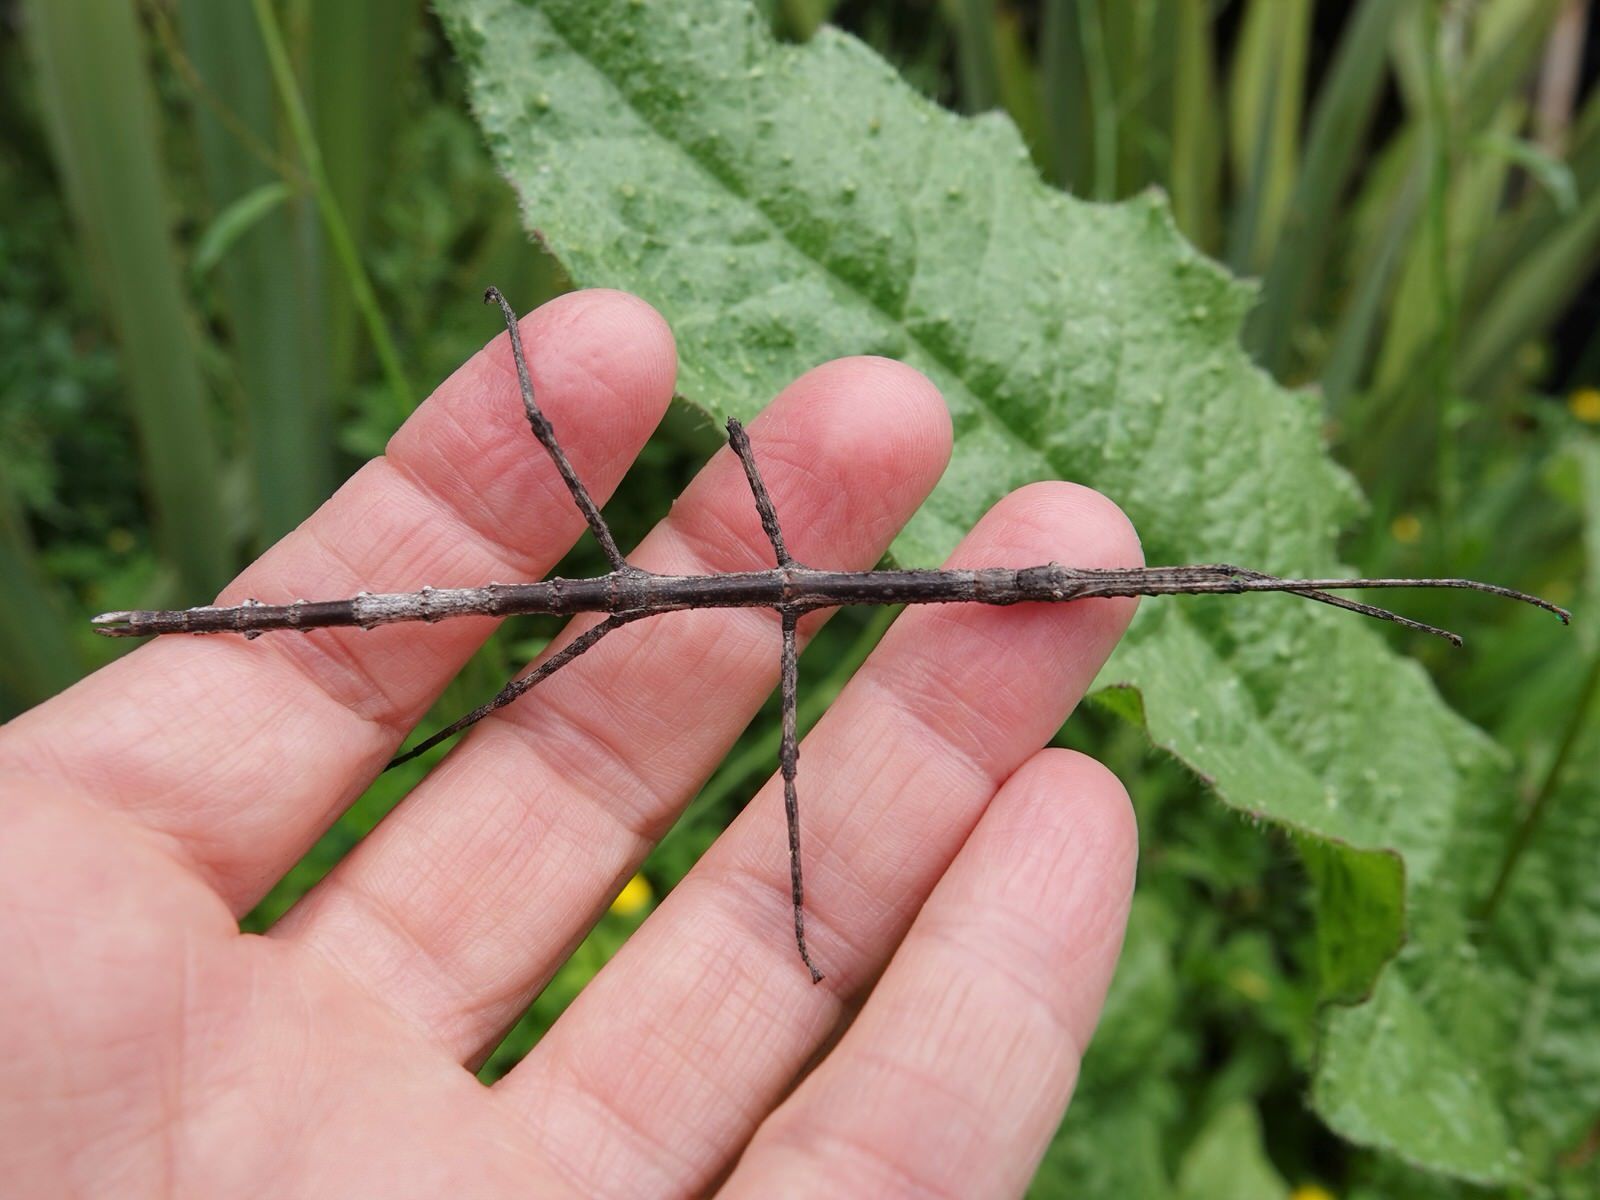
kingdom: Animalia
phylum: Arthropoda
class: Insecta
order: Phasmida
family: Phasmatidae
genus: Clitarchus
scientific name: Clitarchus hookeri
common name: Smooth stick insect
